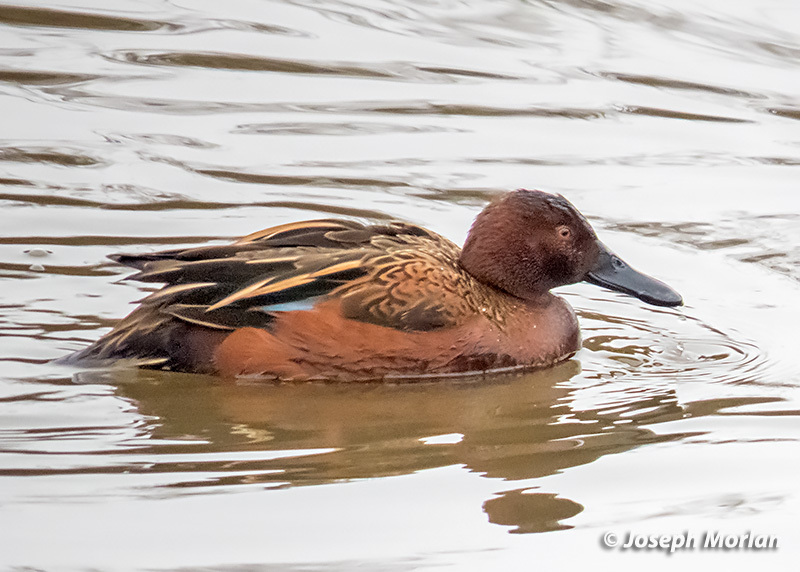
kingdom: Animalia
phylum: Chordata
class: Aves
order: Anseriformes
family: Anatidae
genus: Spatula
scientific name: Spatula cyanoptera
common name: Cinnamon teal
